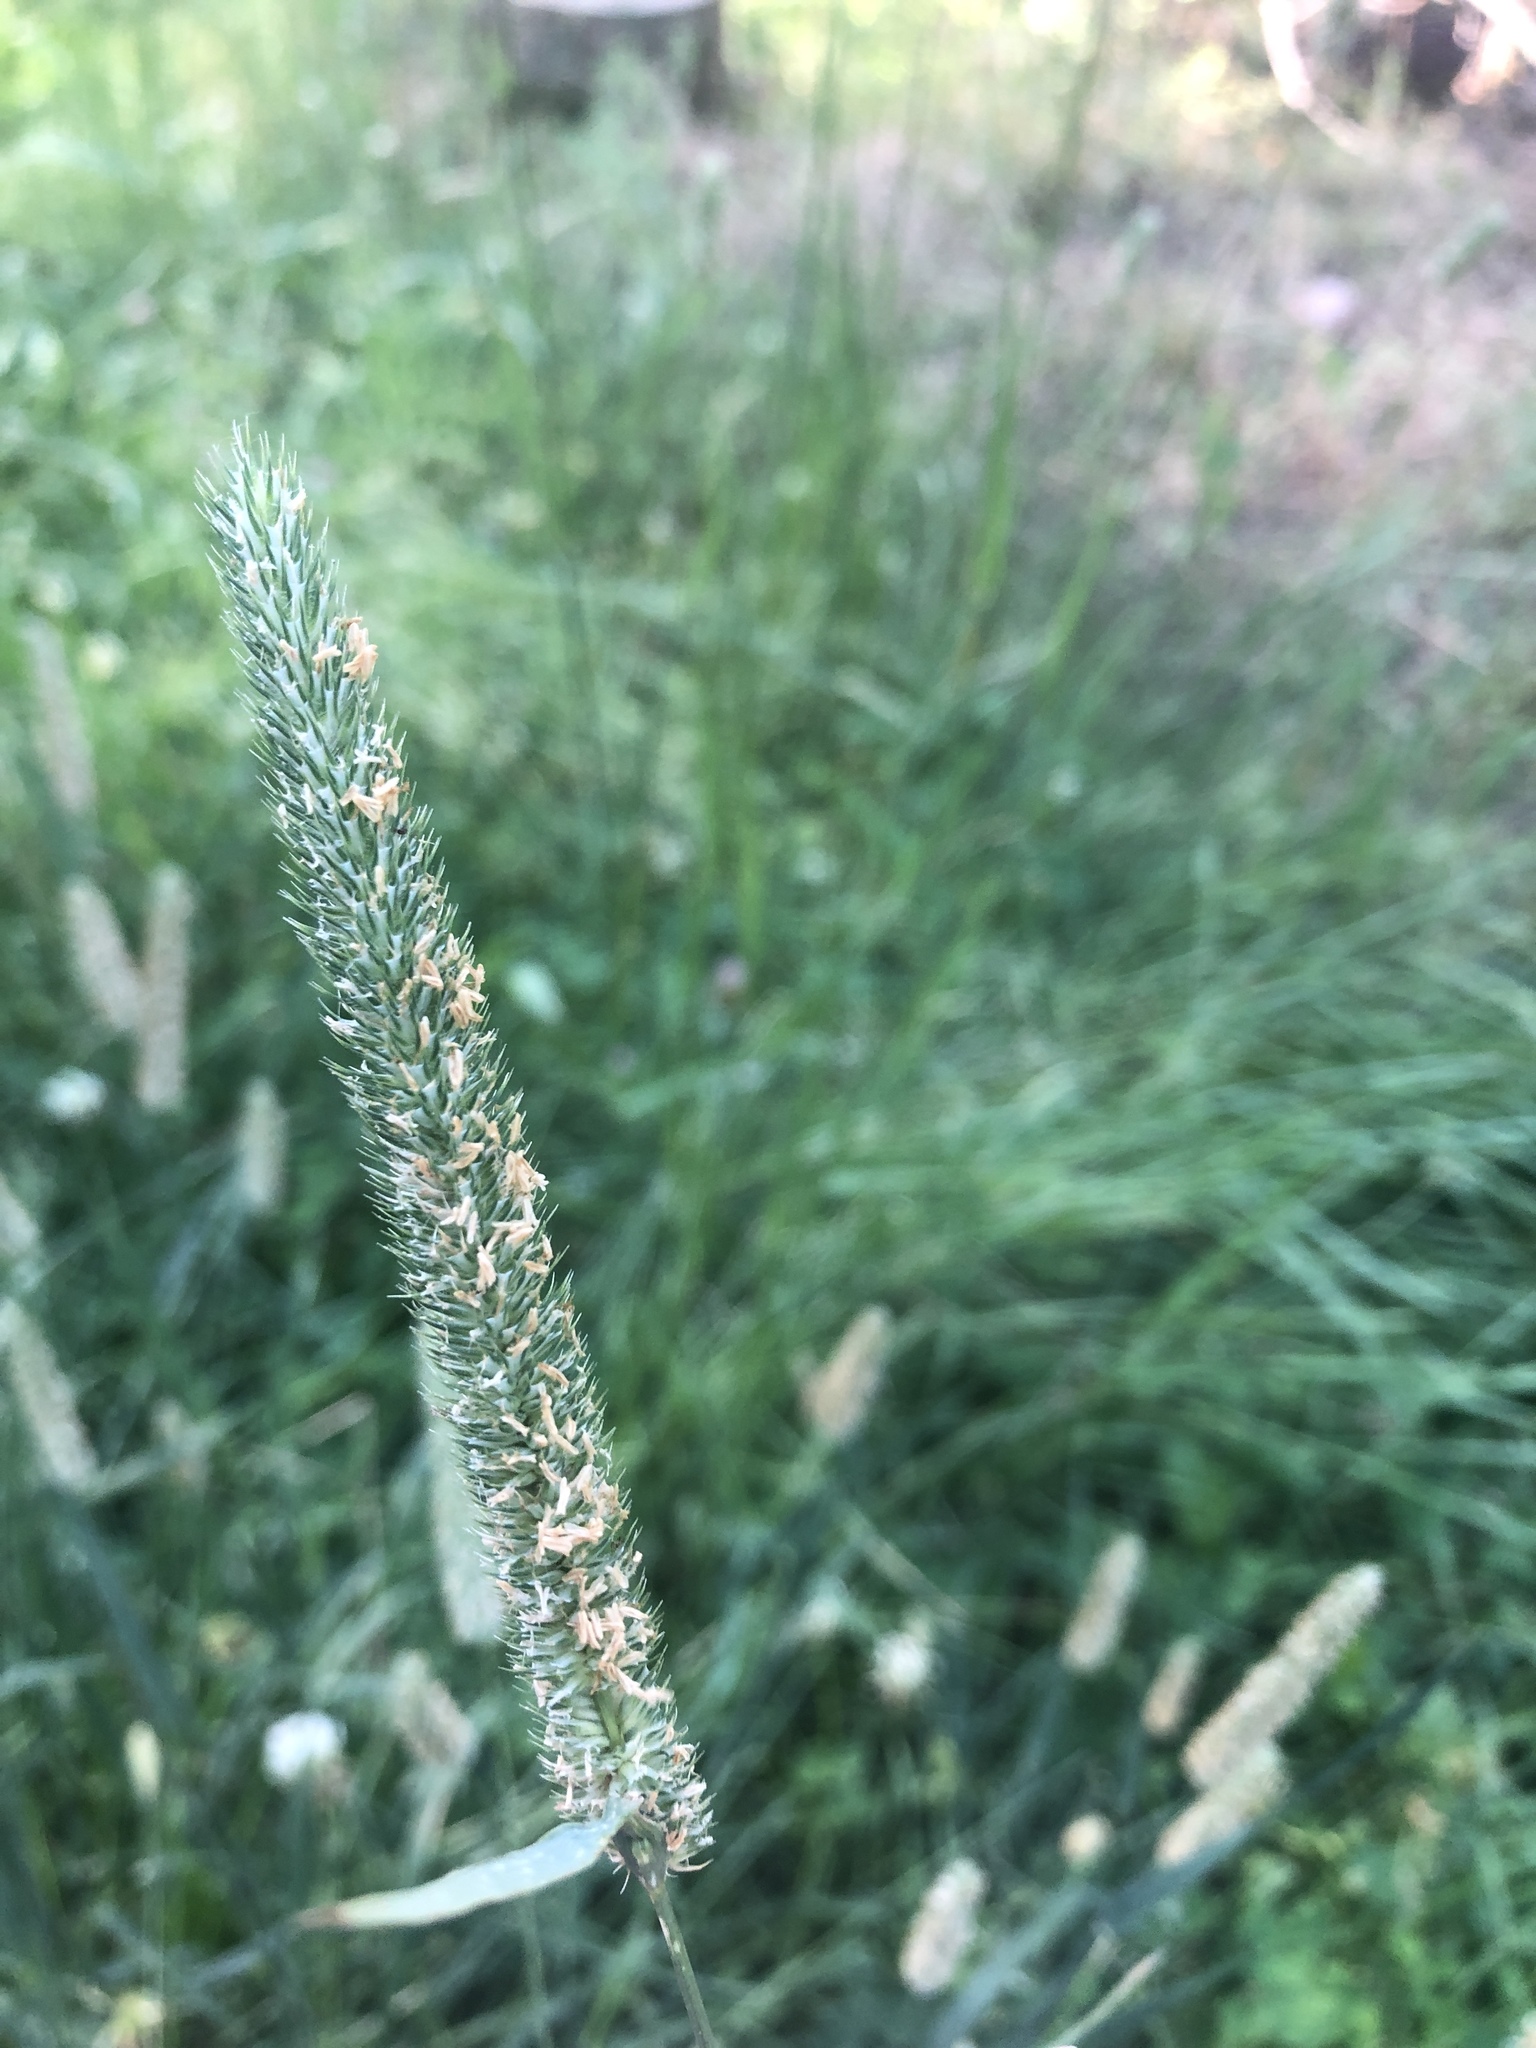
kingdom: Plantae
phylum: Tracheophyta
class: Liliopsida
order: Poales
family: Poaceae
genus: Phleum
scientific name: Phleum pratense
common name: Timothy grass
